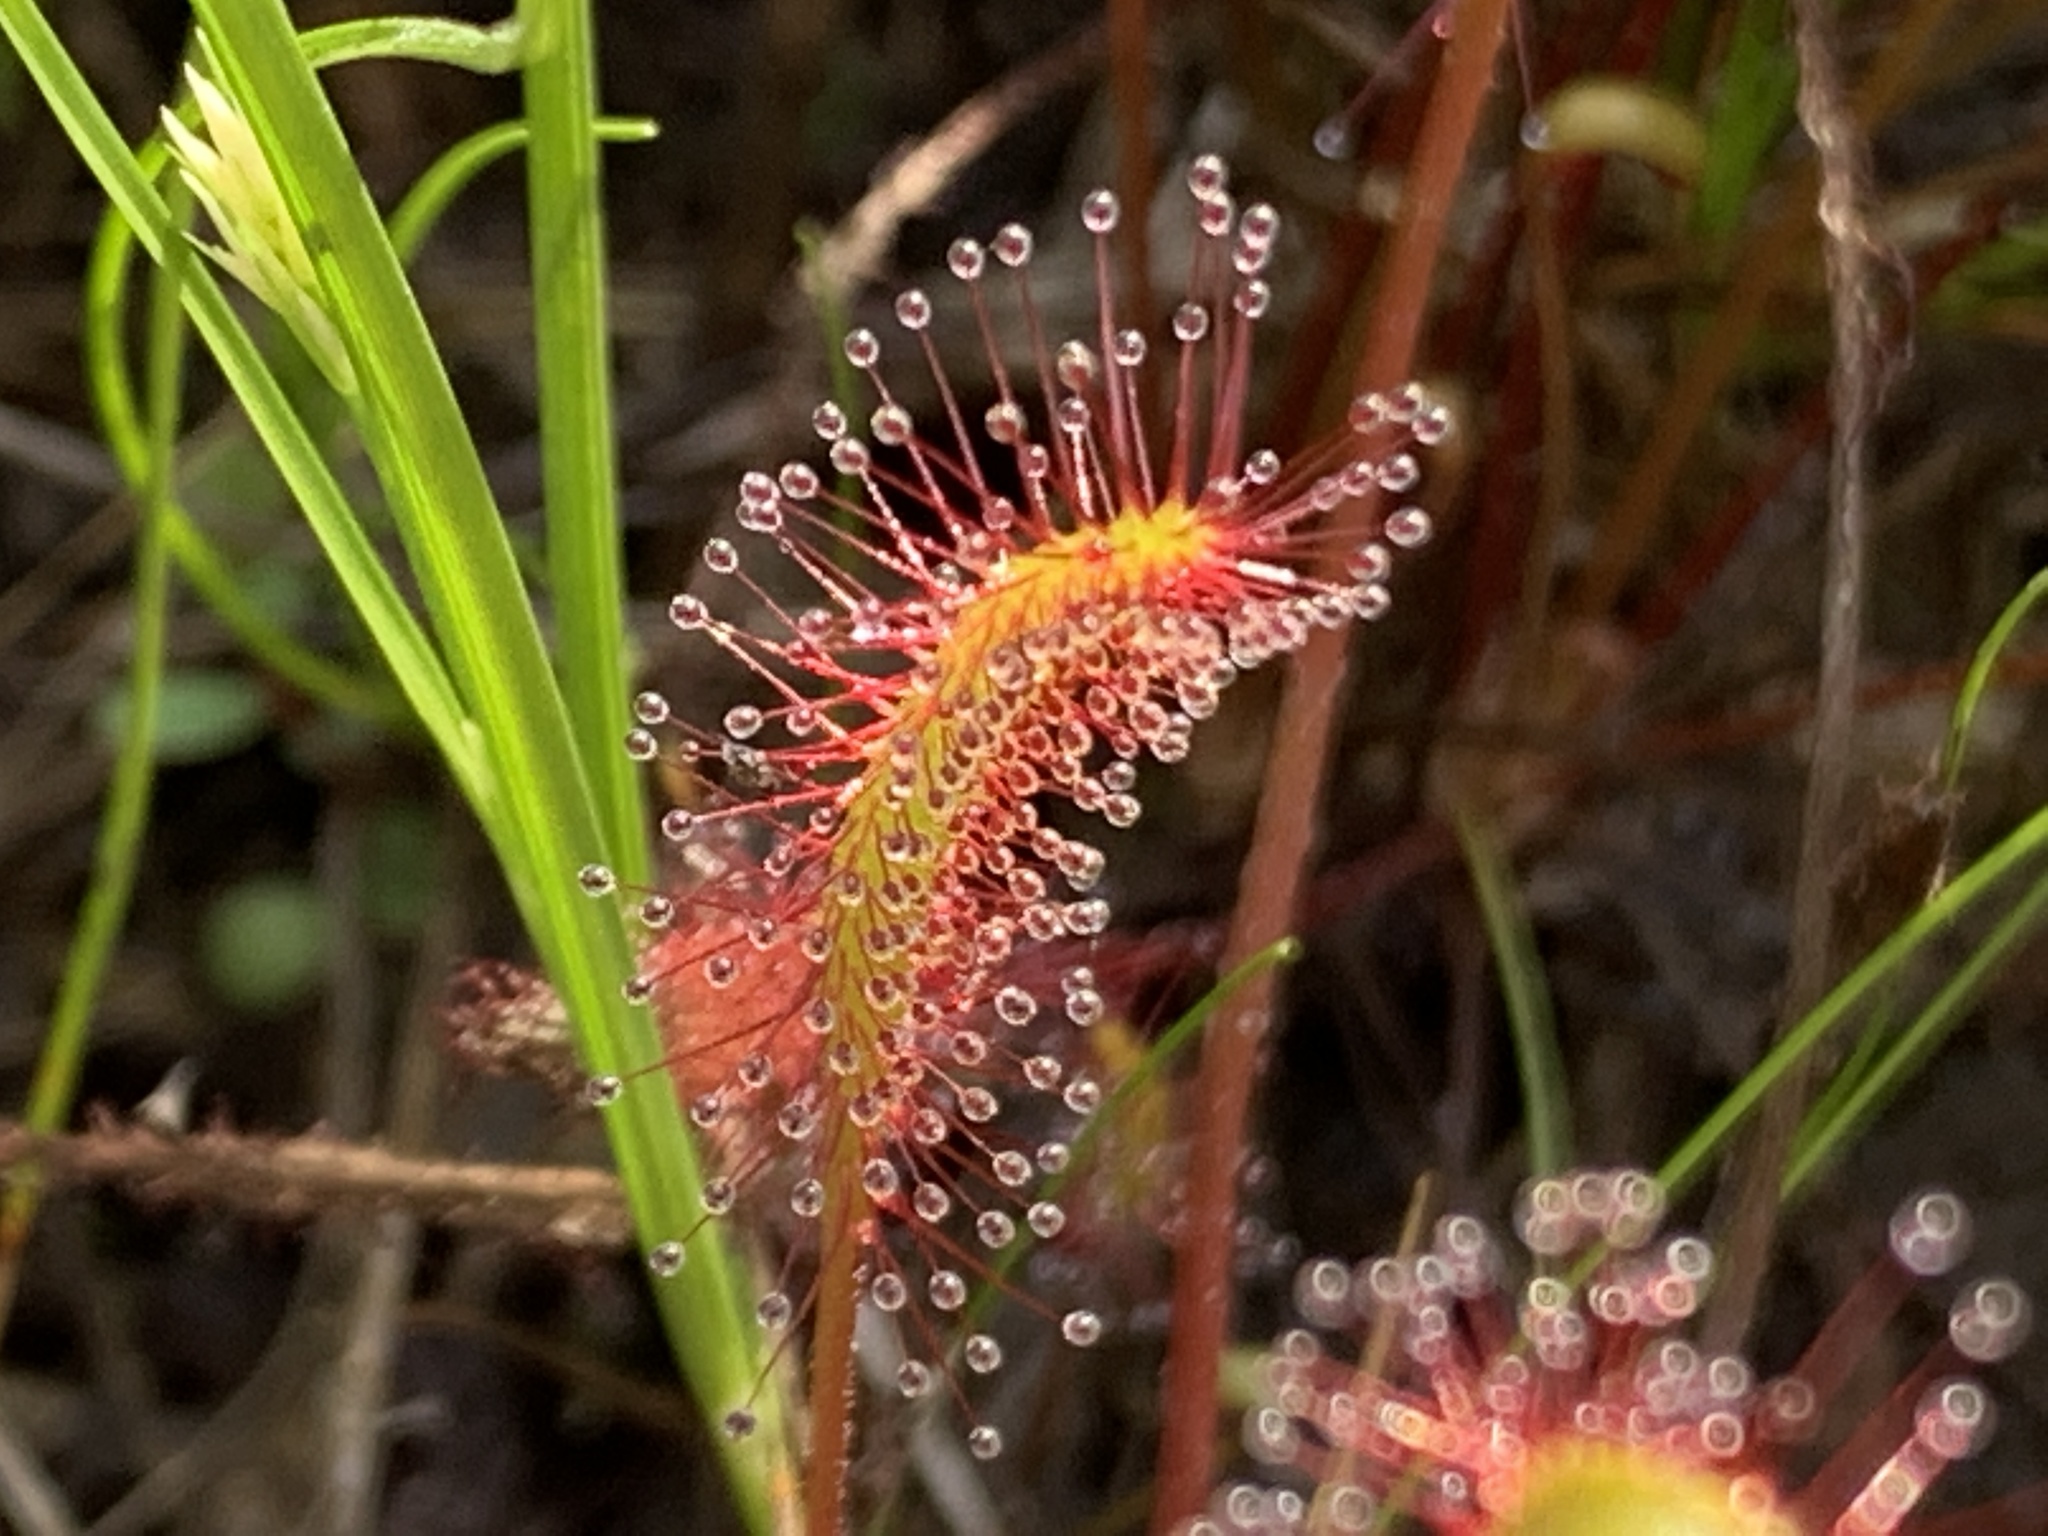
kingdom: Plantae
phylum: Tracheophyta
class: Magnoliopsida
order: Caryophyllales
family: Droseraceae
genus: Drosera
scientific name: Drosera anglica
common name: Great sundew
